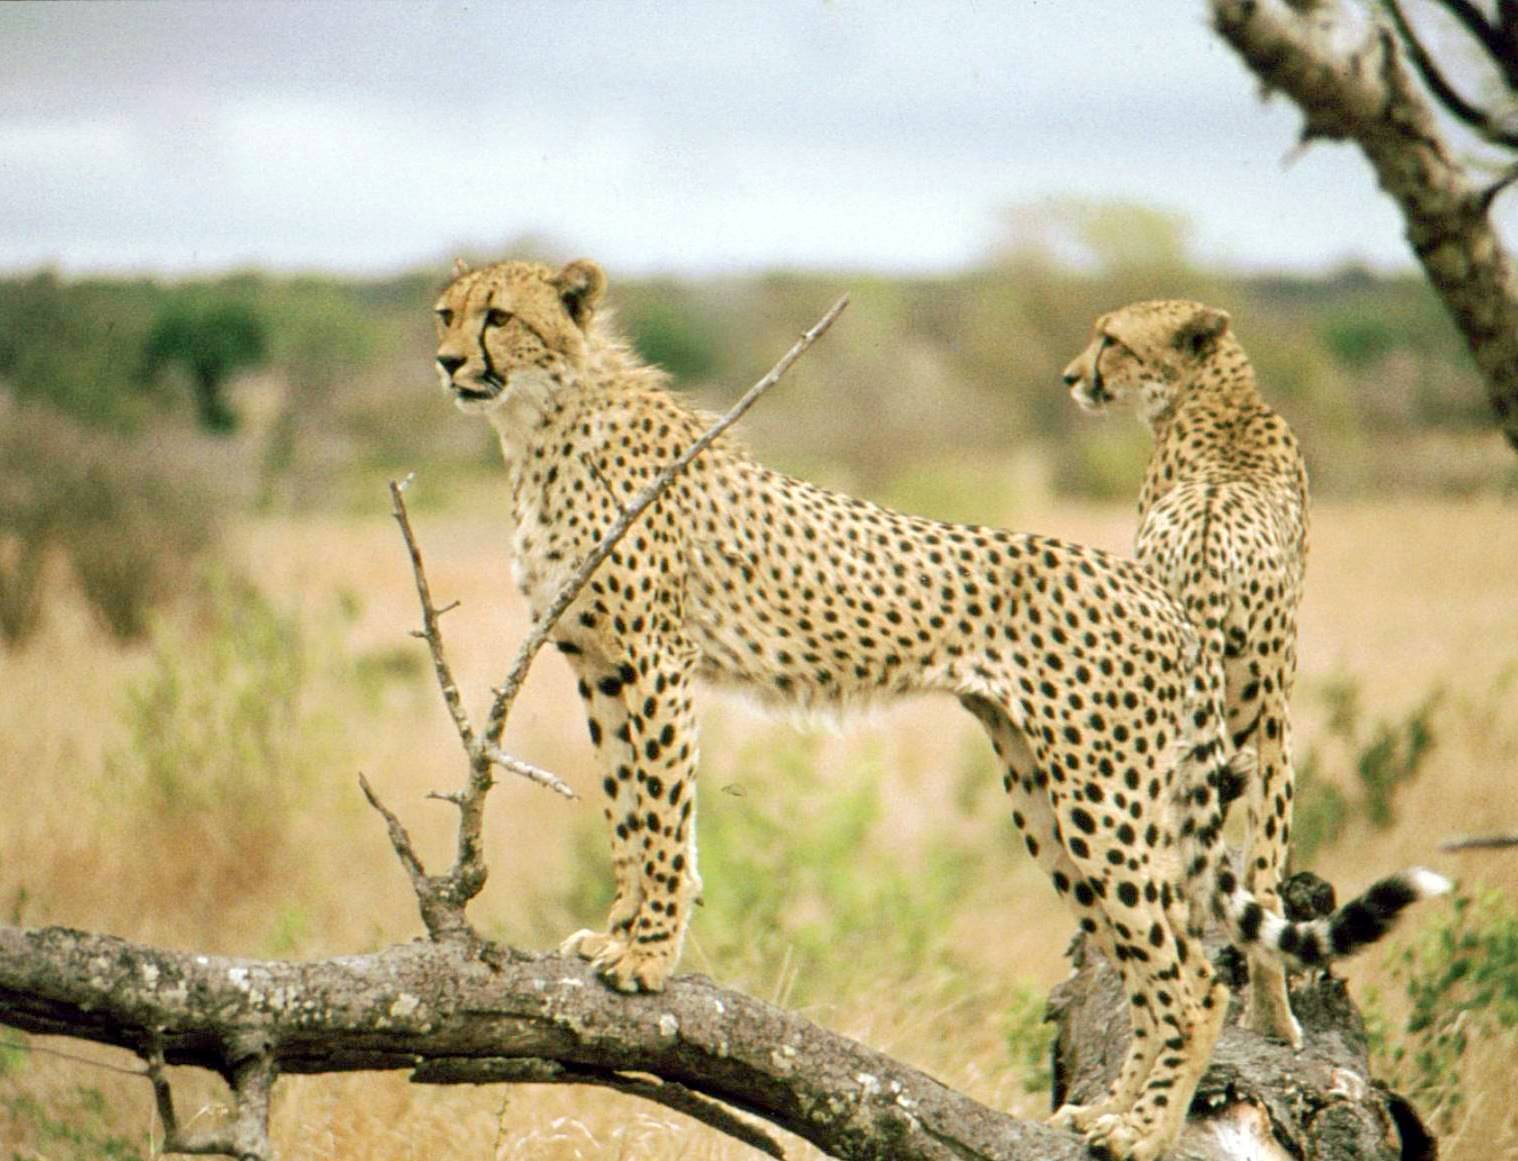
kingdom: Animalia
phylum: Chordata
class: Mammalia
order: Carnivora
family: Felidae
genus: Acinonyx
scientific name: Acinonyx jubatus
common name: Cheetah
